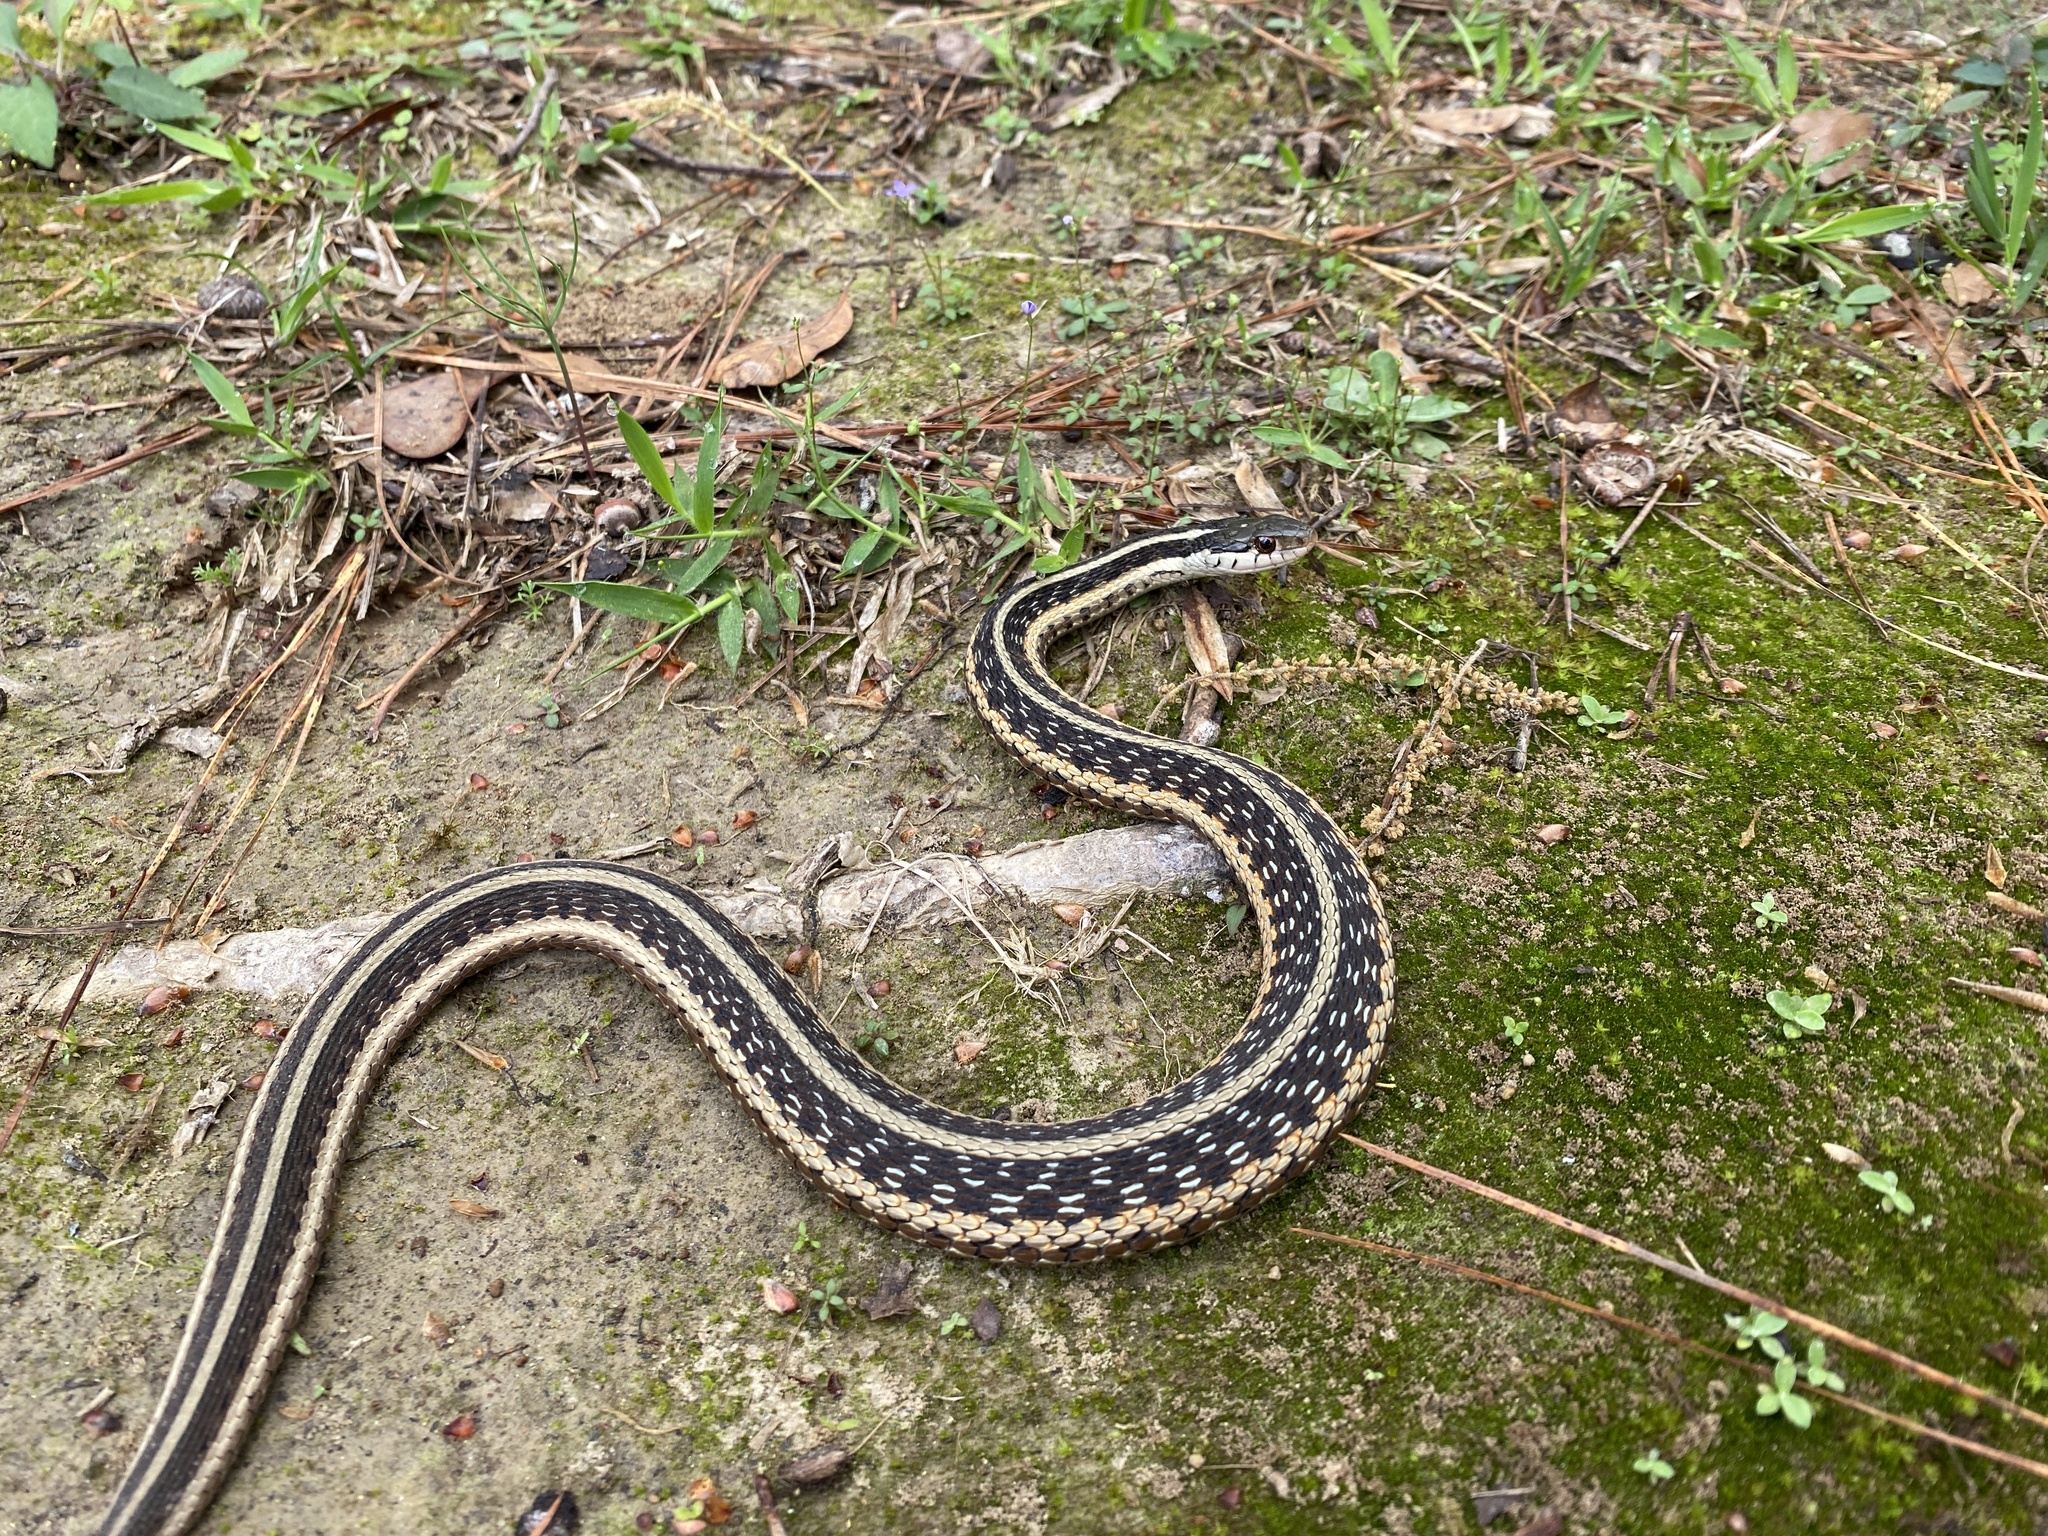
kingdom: Animalia
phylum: Chordata
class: Squamata
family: Colubridae
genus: Thamnophis
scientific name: Thamnophis sirtalis
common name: Common garter snake
